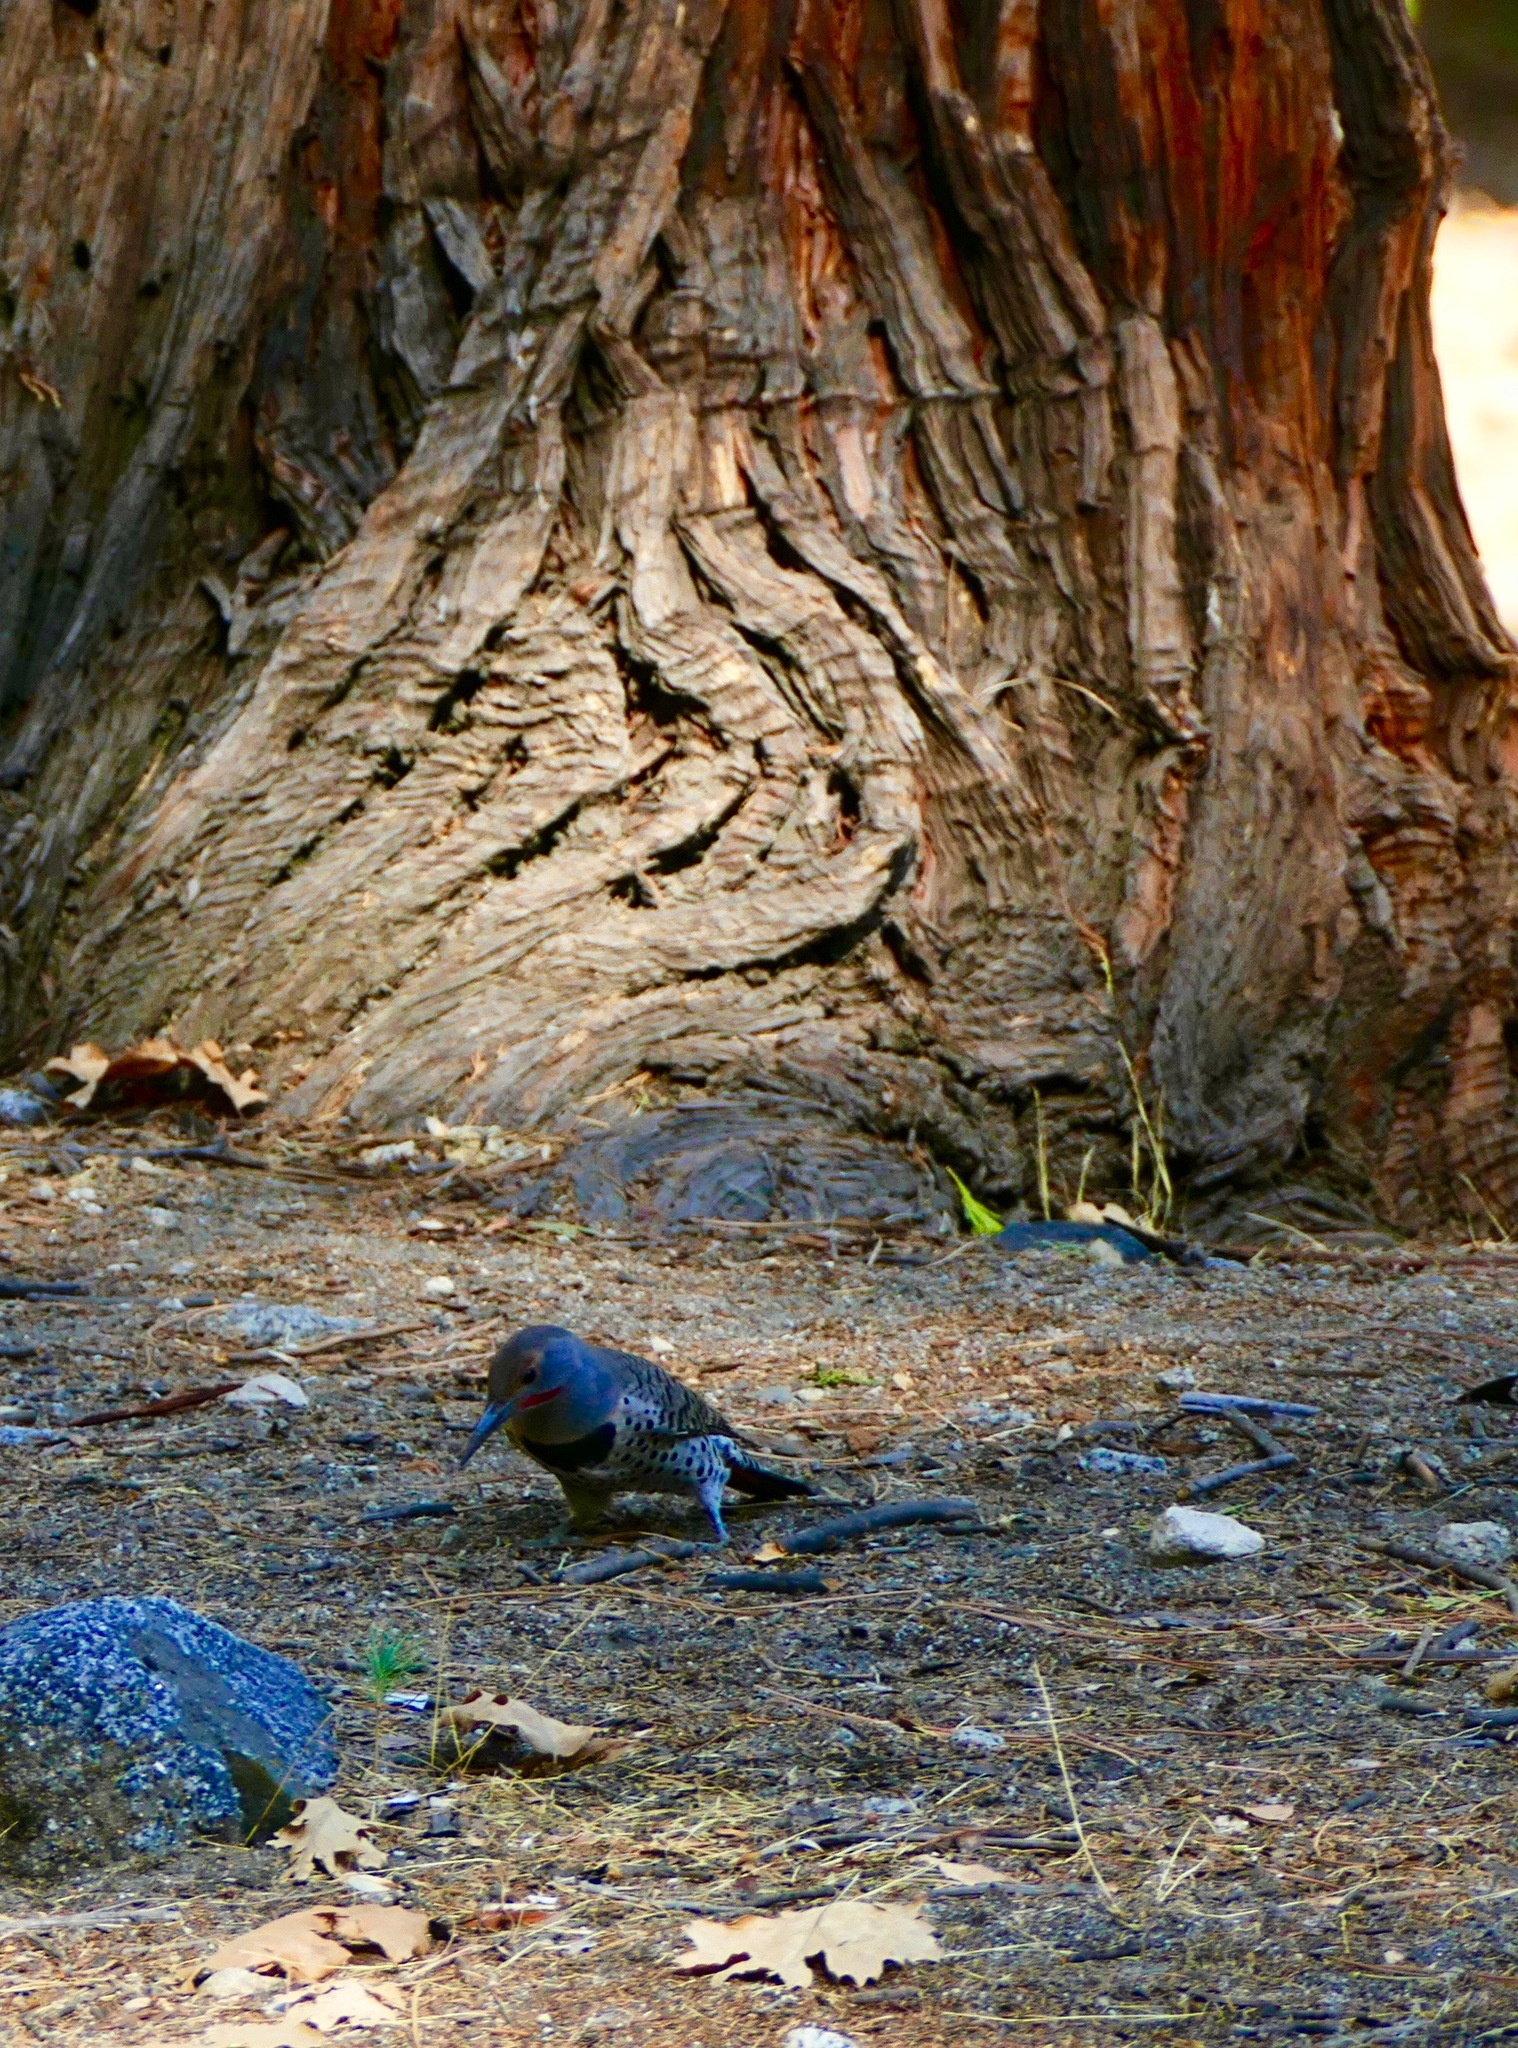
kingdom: Animalia
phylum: Chordata
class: Aves
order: Piciformes
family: Picidae
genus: Colaptes
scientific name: Colaptes auratus
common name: Northern flicker
